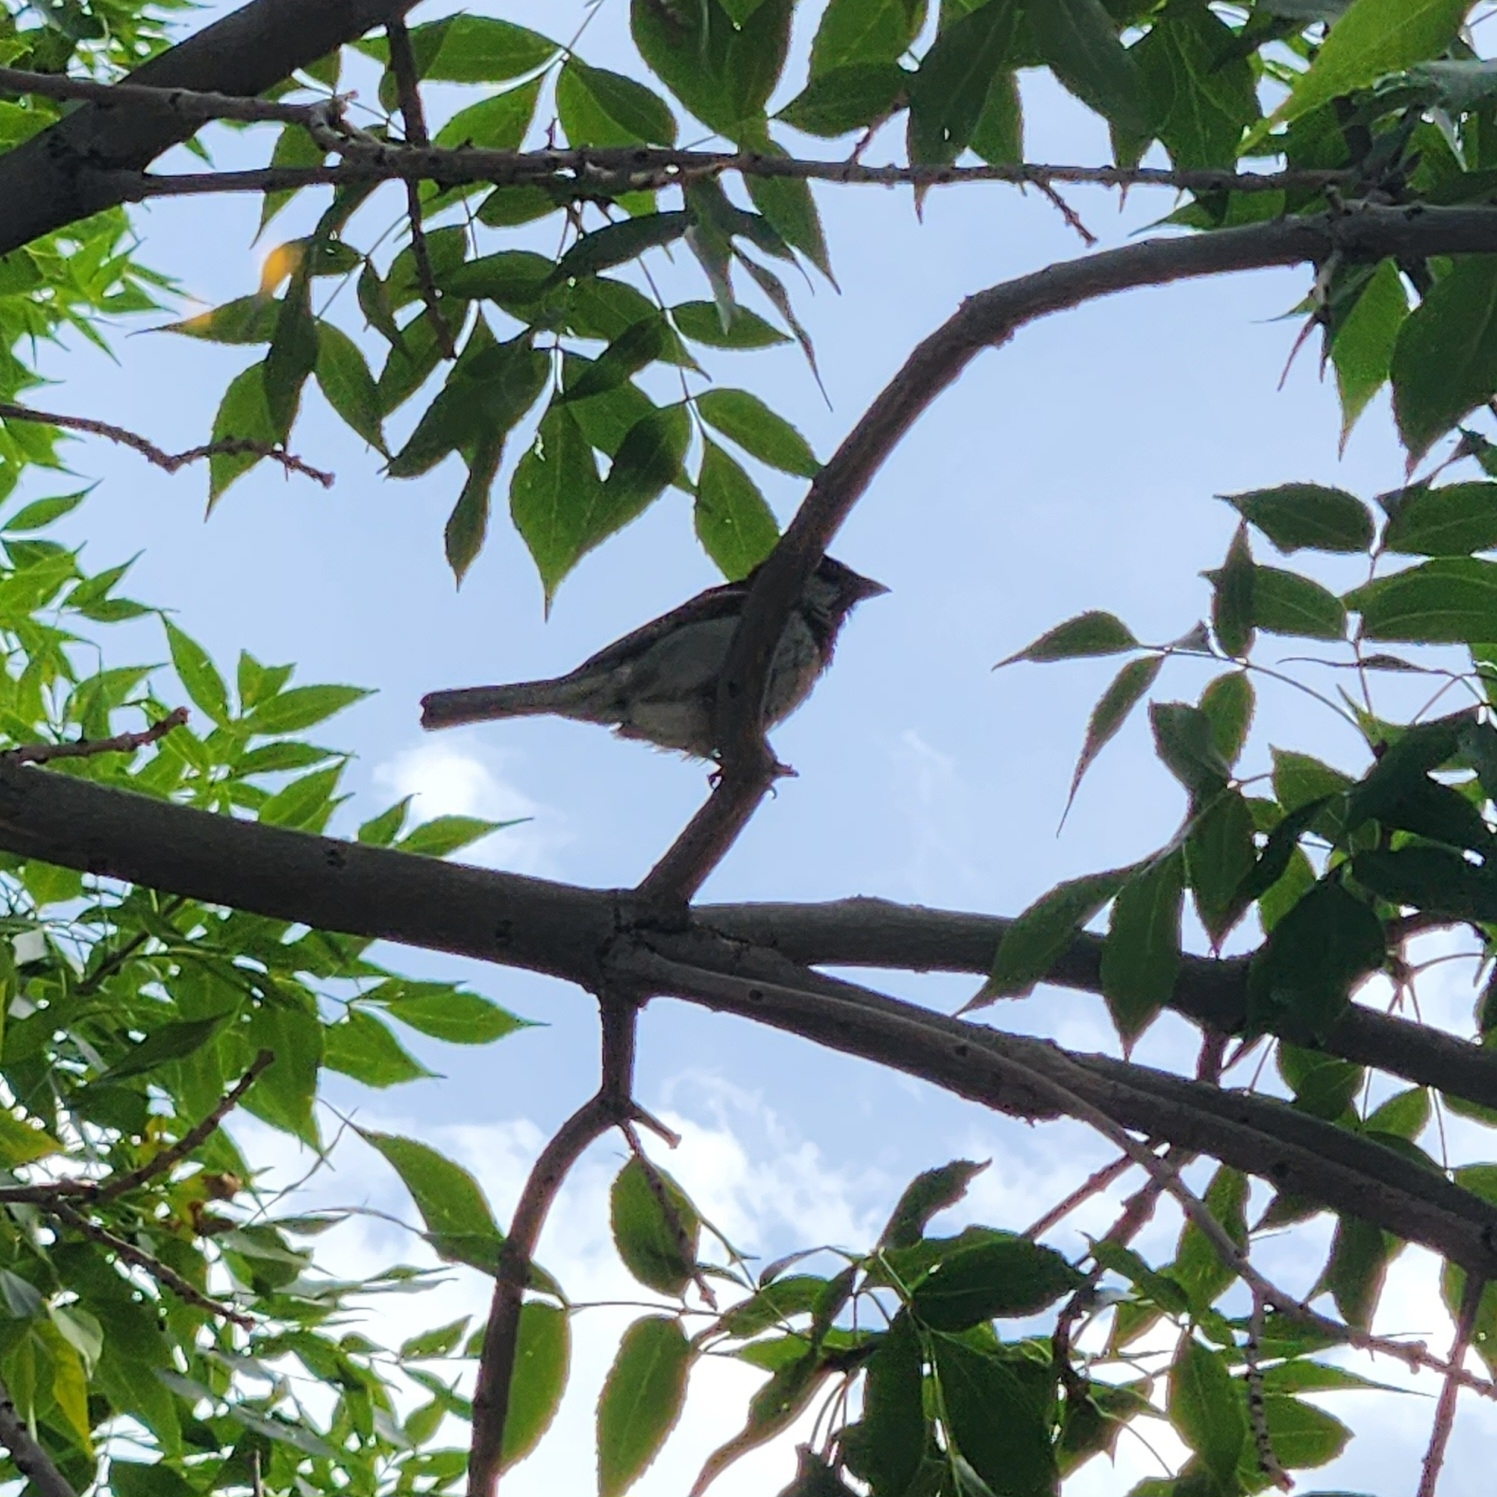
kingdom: Animalia
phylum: Chordata
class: Aves
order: Passeriformes
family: Passeridae
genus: Passer
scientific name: Passer domesticus
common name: House sparrow
